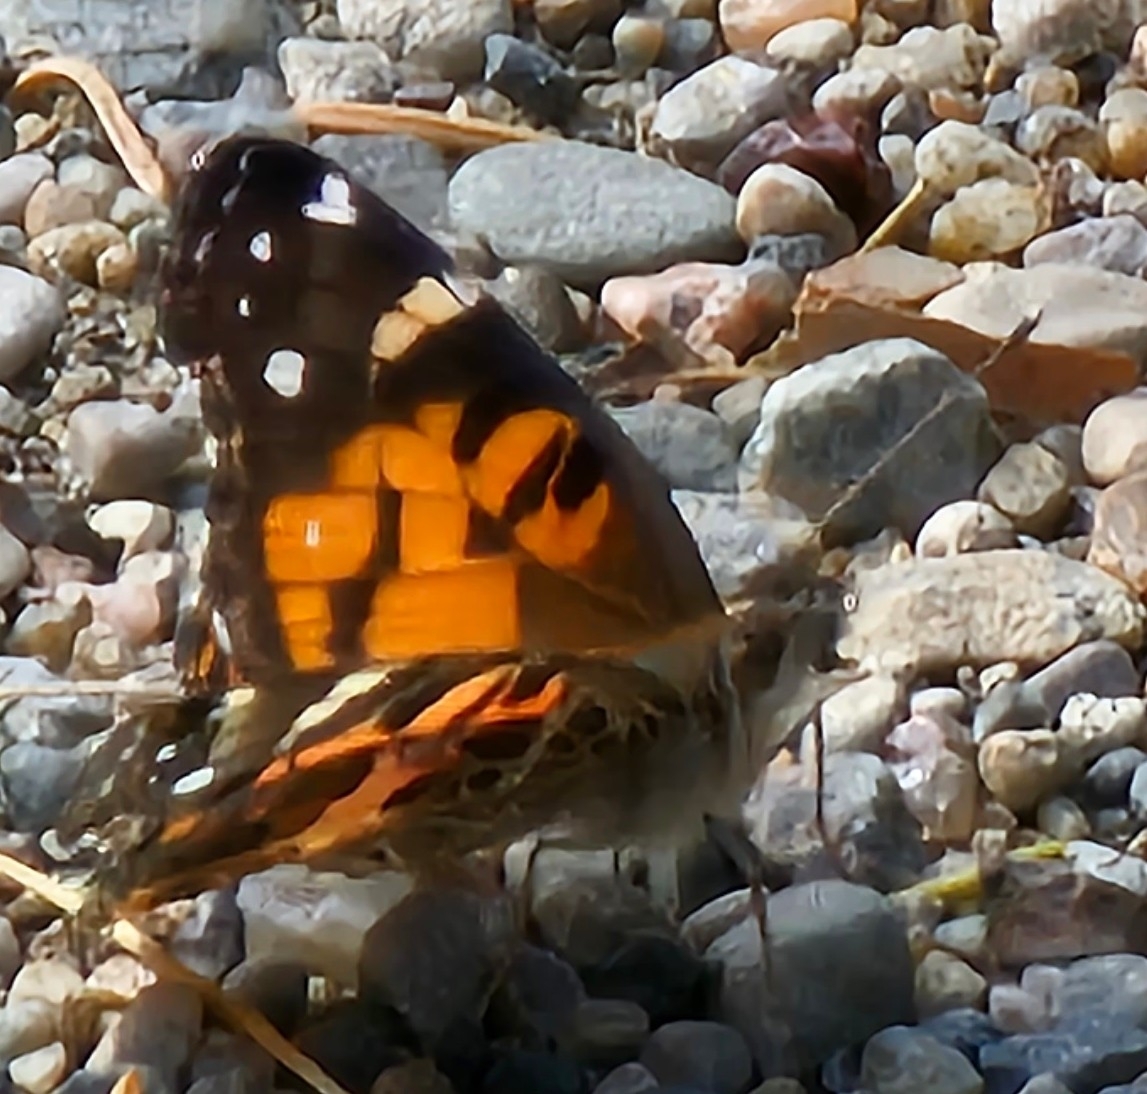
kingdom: Animalia
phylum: Arthropoda
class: Insecta
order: Lepidoptera
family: Nymphalidae
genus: Vanessa
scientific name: Vanessa virginiensis
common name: American lady
